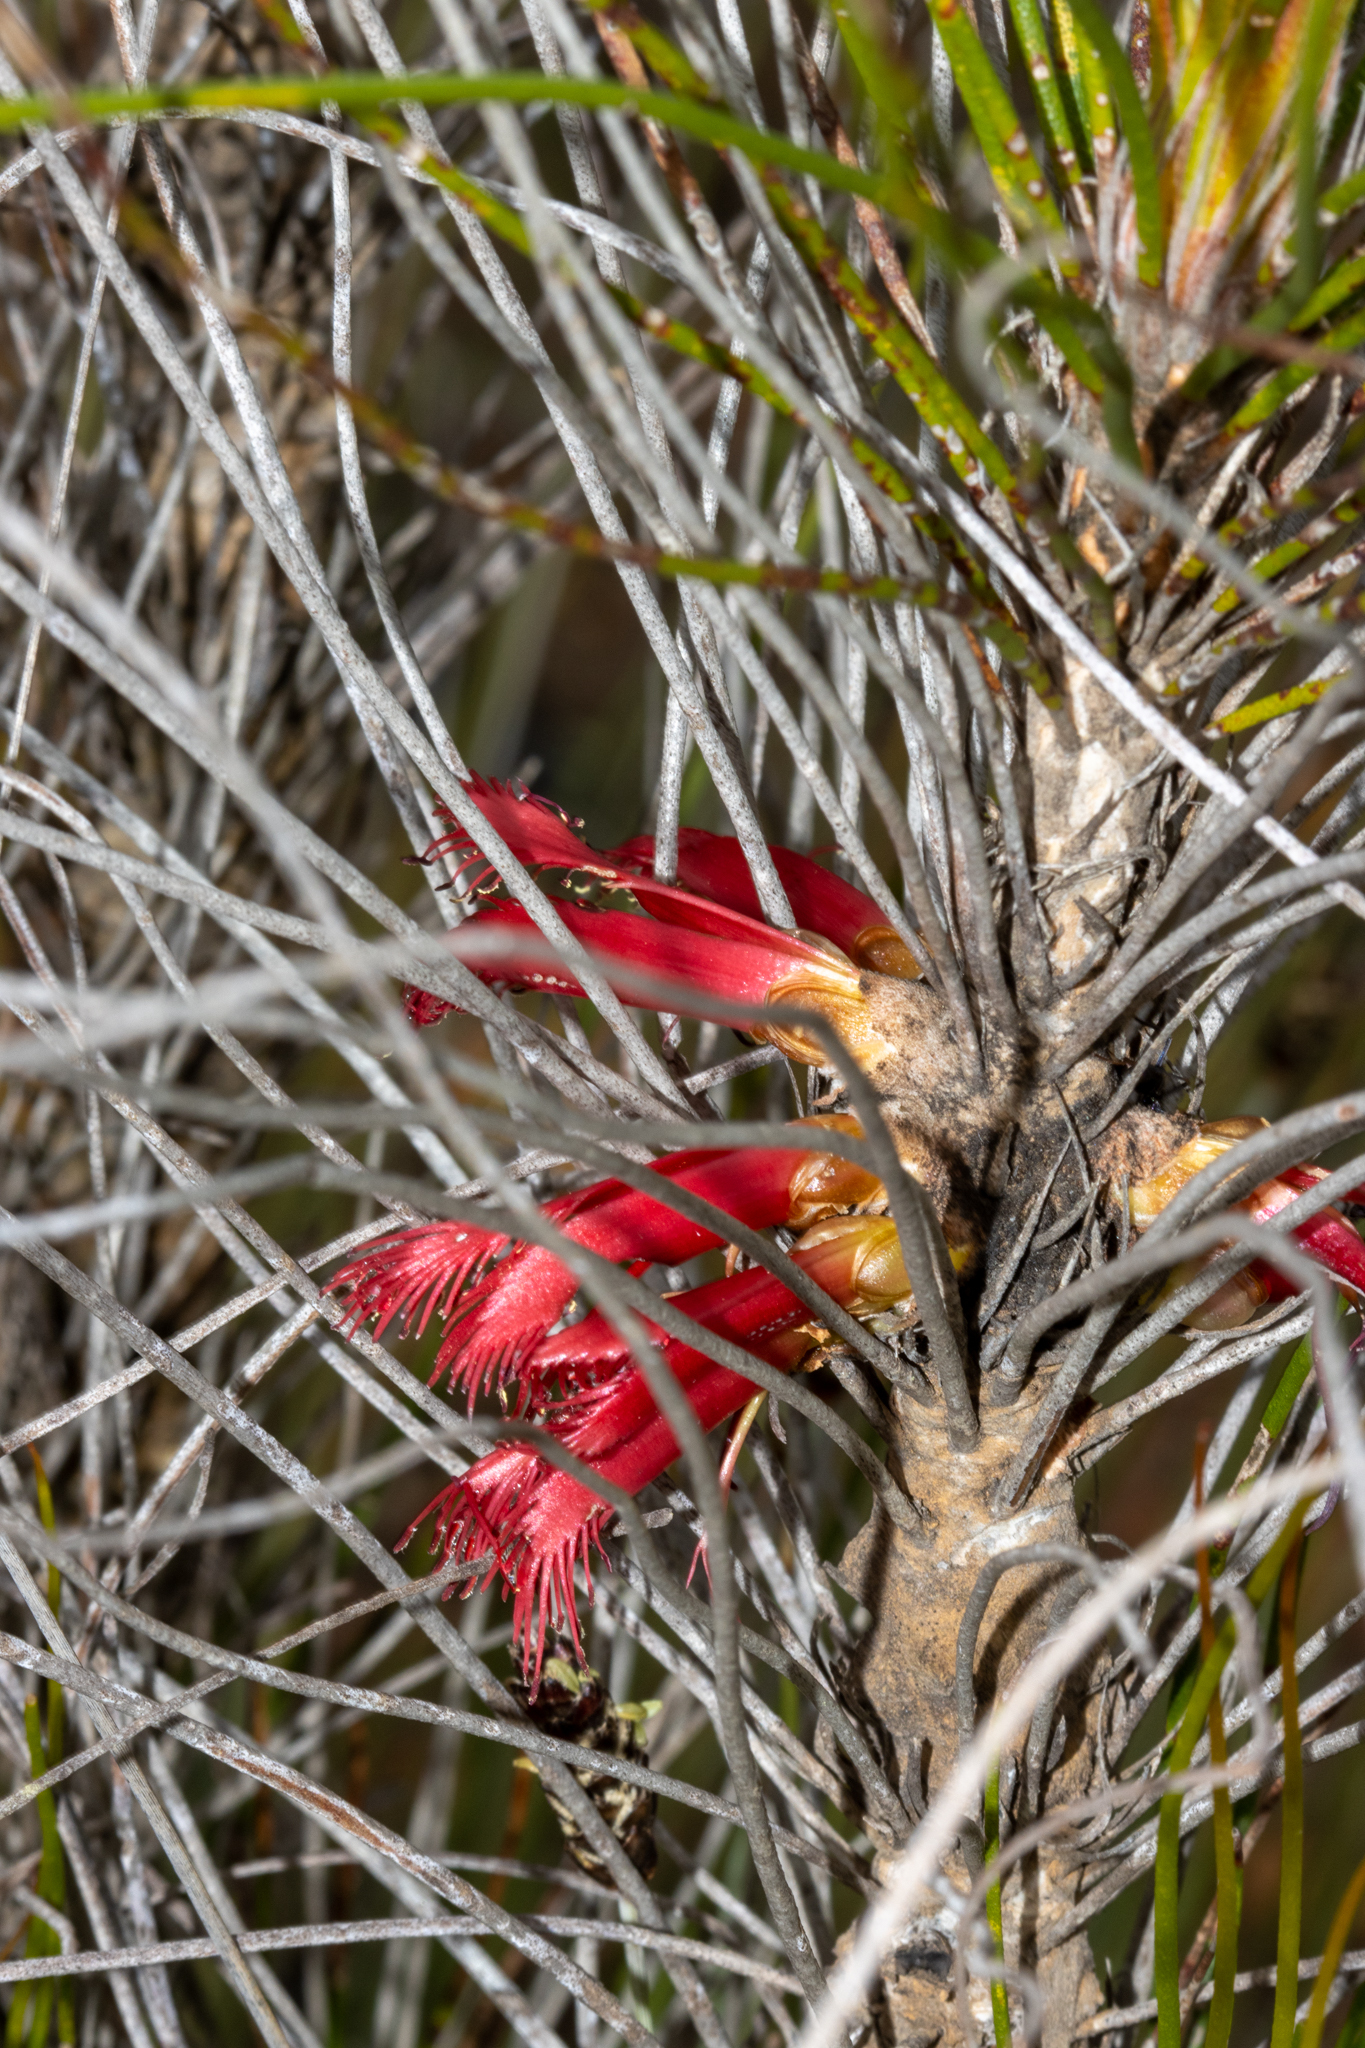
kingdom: Plantae
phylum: Tracheophyta
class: Magnoliopsida
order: Myrtales
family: Myrtaceae
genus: Melaleuca
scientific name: Melaleuca longissima
